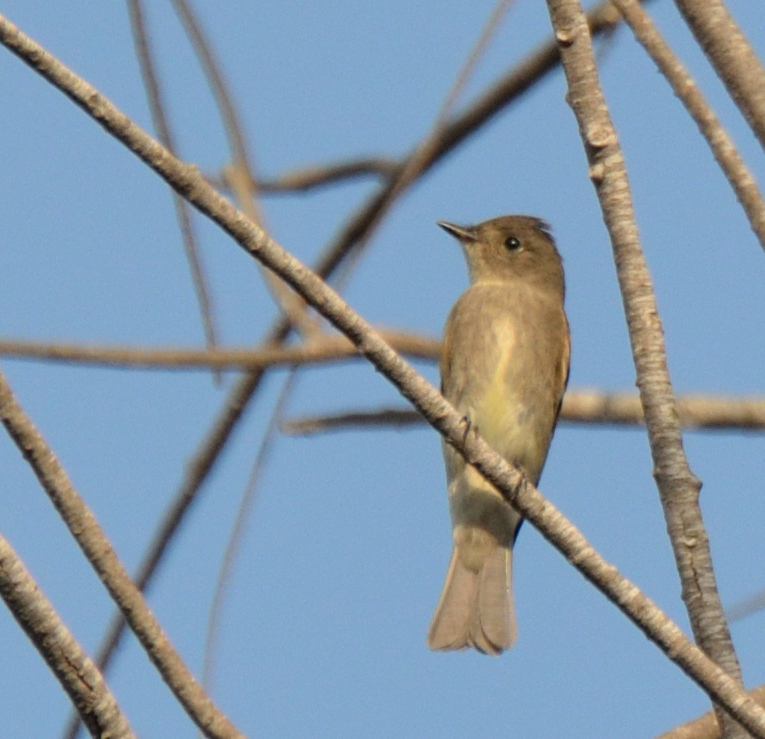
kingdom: Animalia
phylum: Chordata
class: Aves
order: Passeriformes
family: Tyrannidae
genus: Contopus
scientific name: Contopus sordidulus
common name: Western wood-pewee
